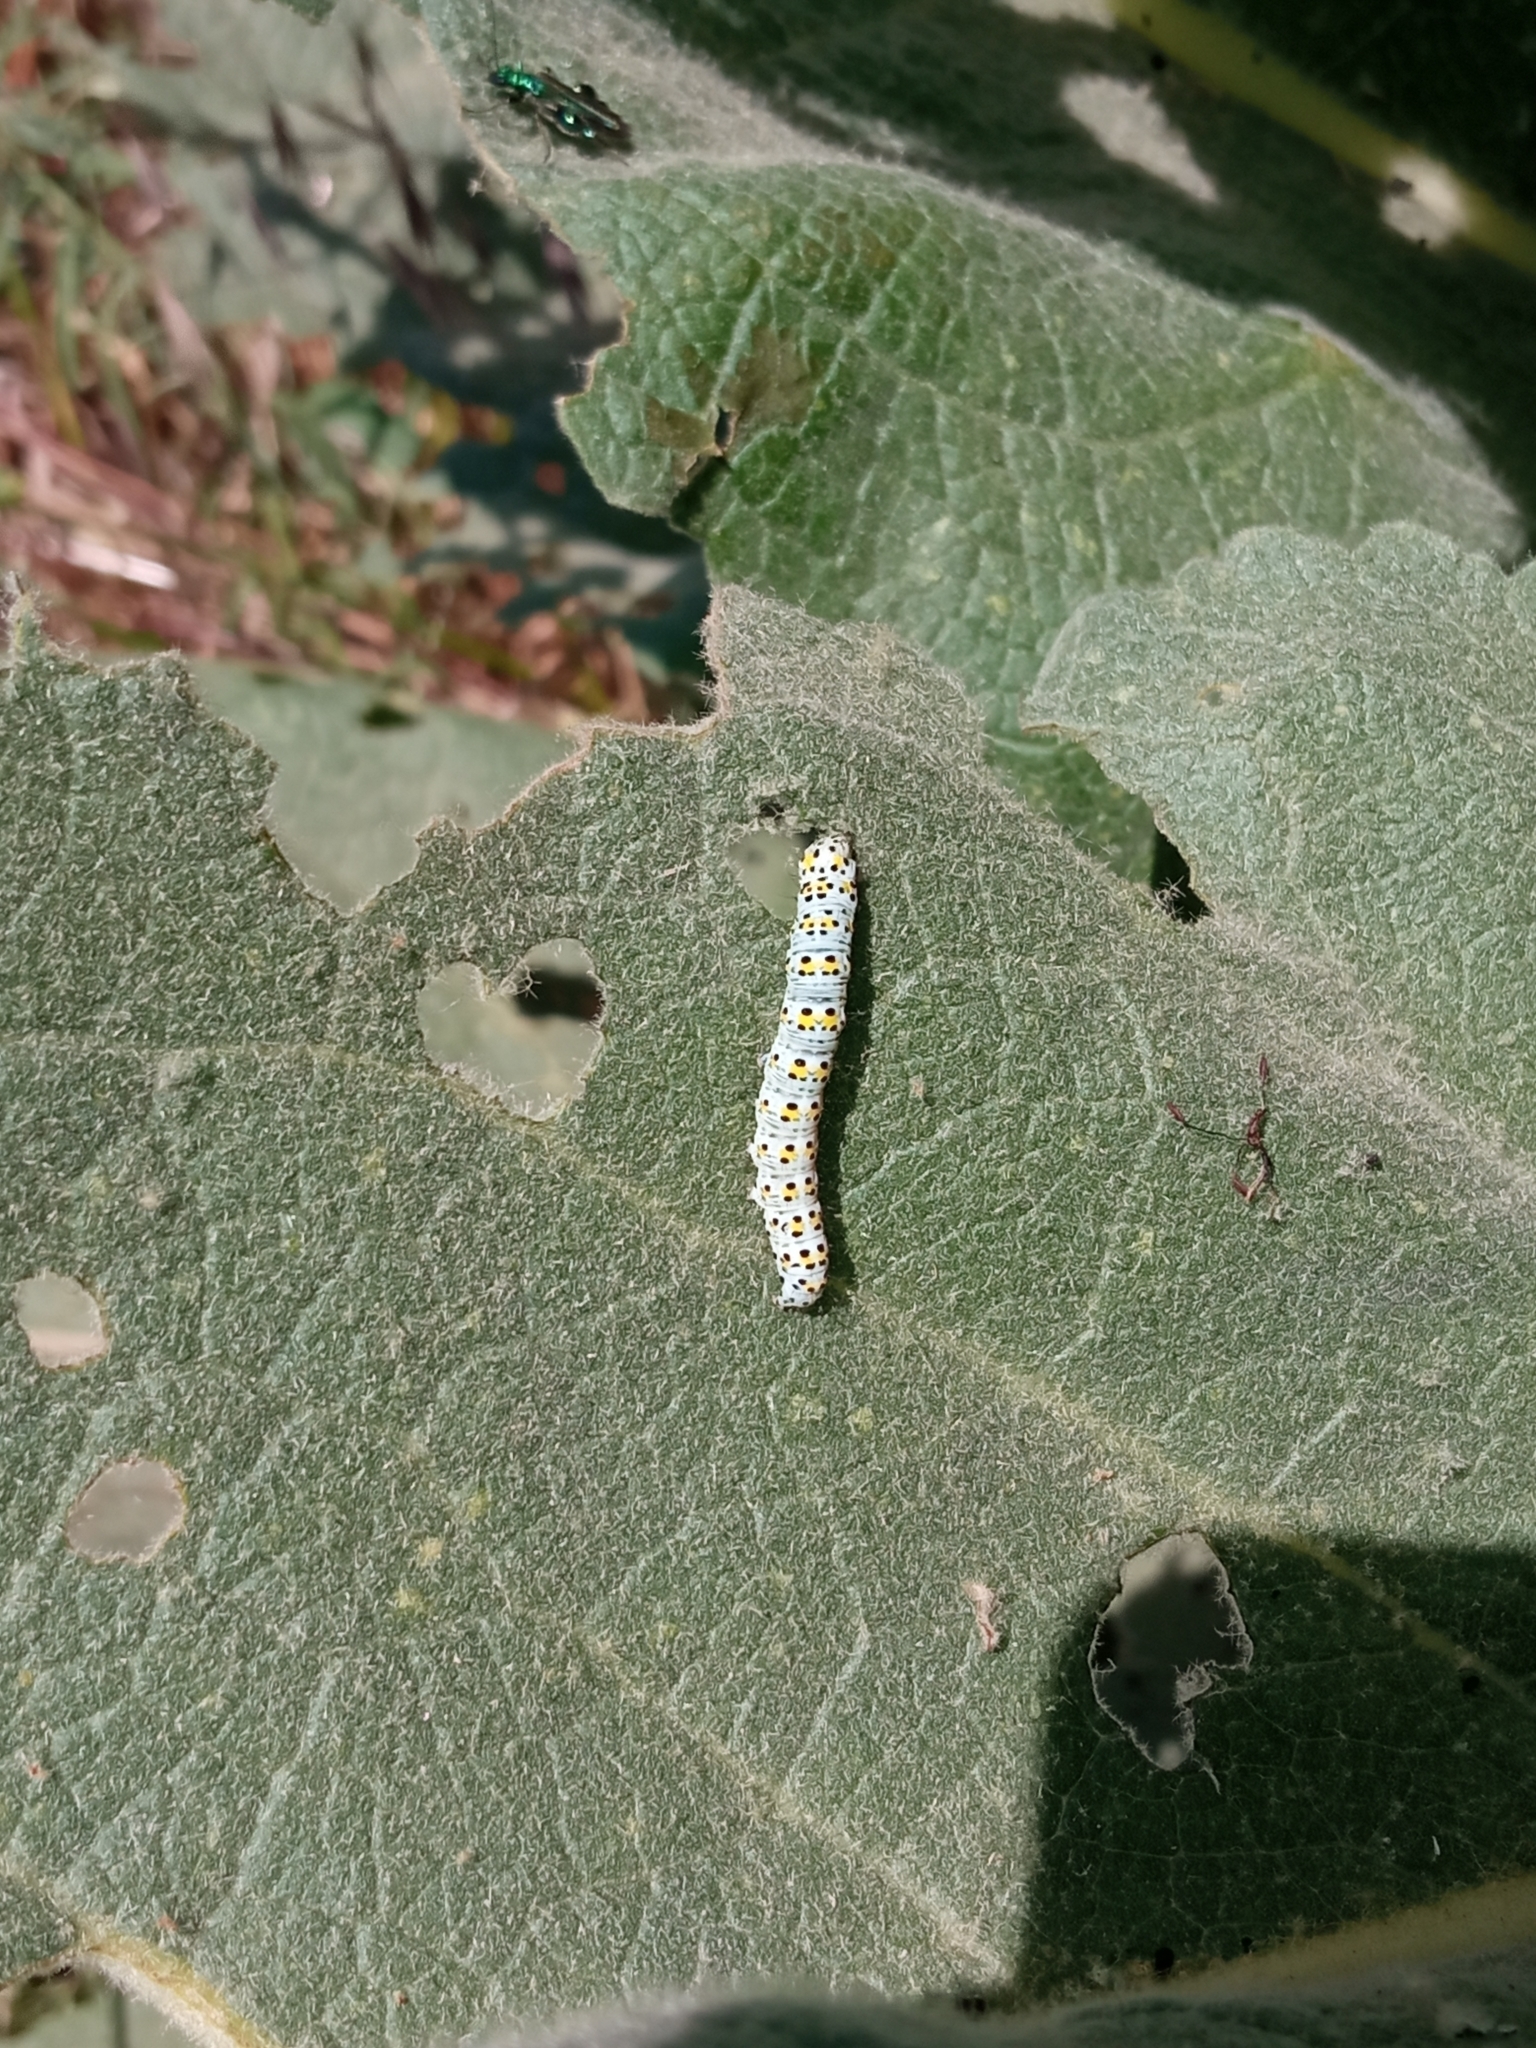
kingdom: Animalia
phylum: Arthropoda
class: Insecta
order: Lepidoptera
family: Noctuidae
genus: Cucullia
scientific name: Cucullia verbasci
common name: Mullein
